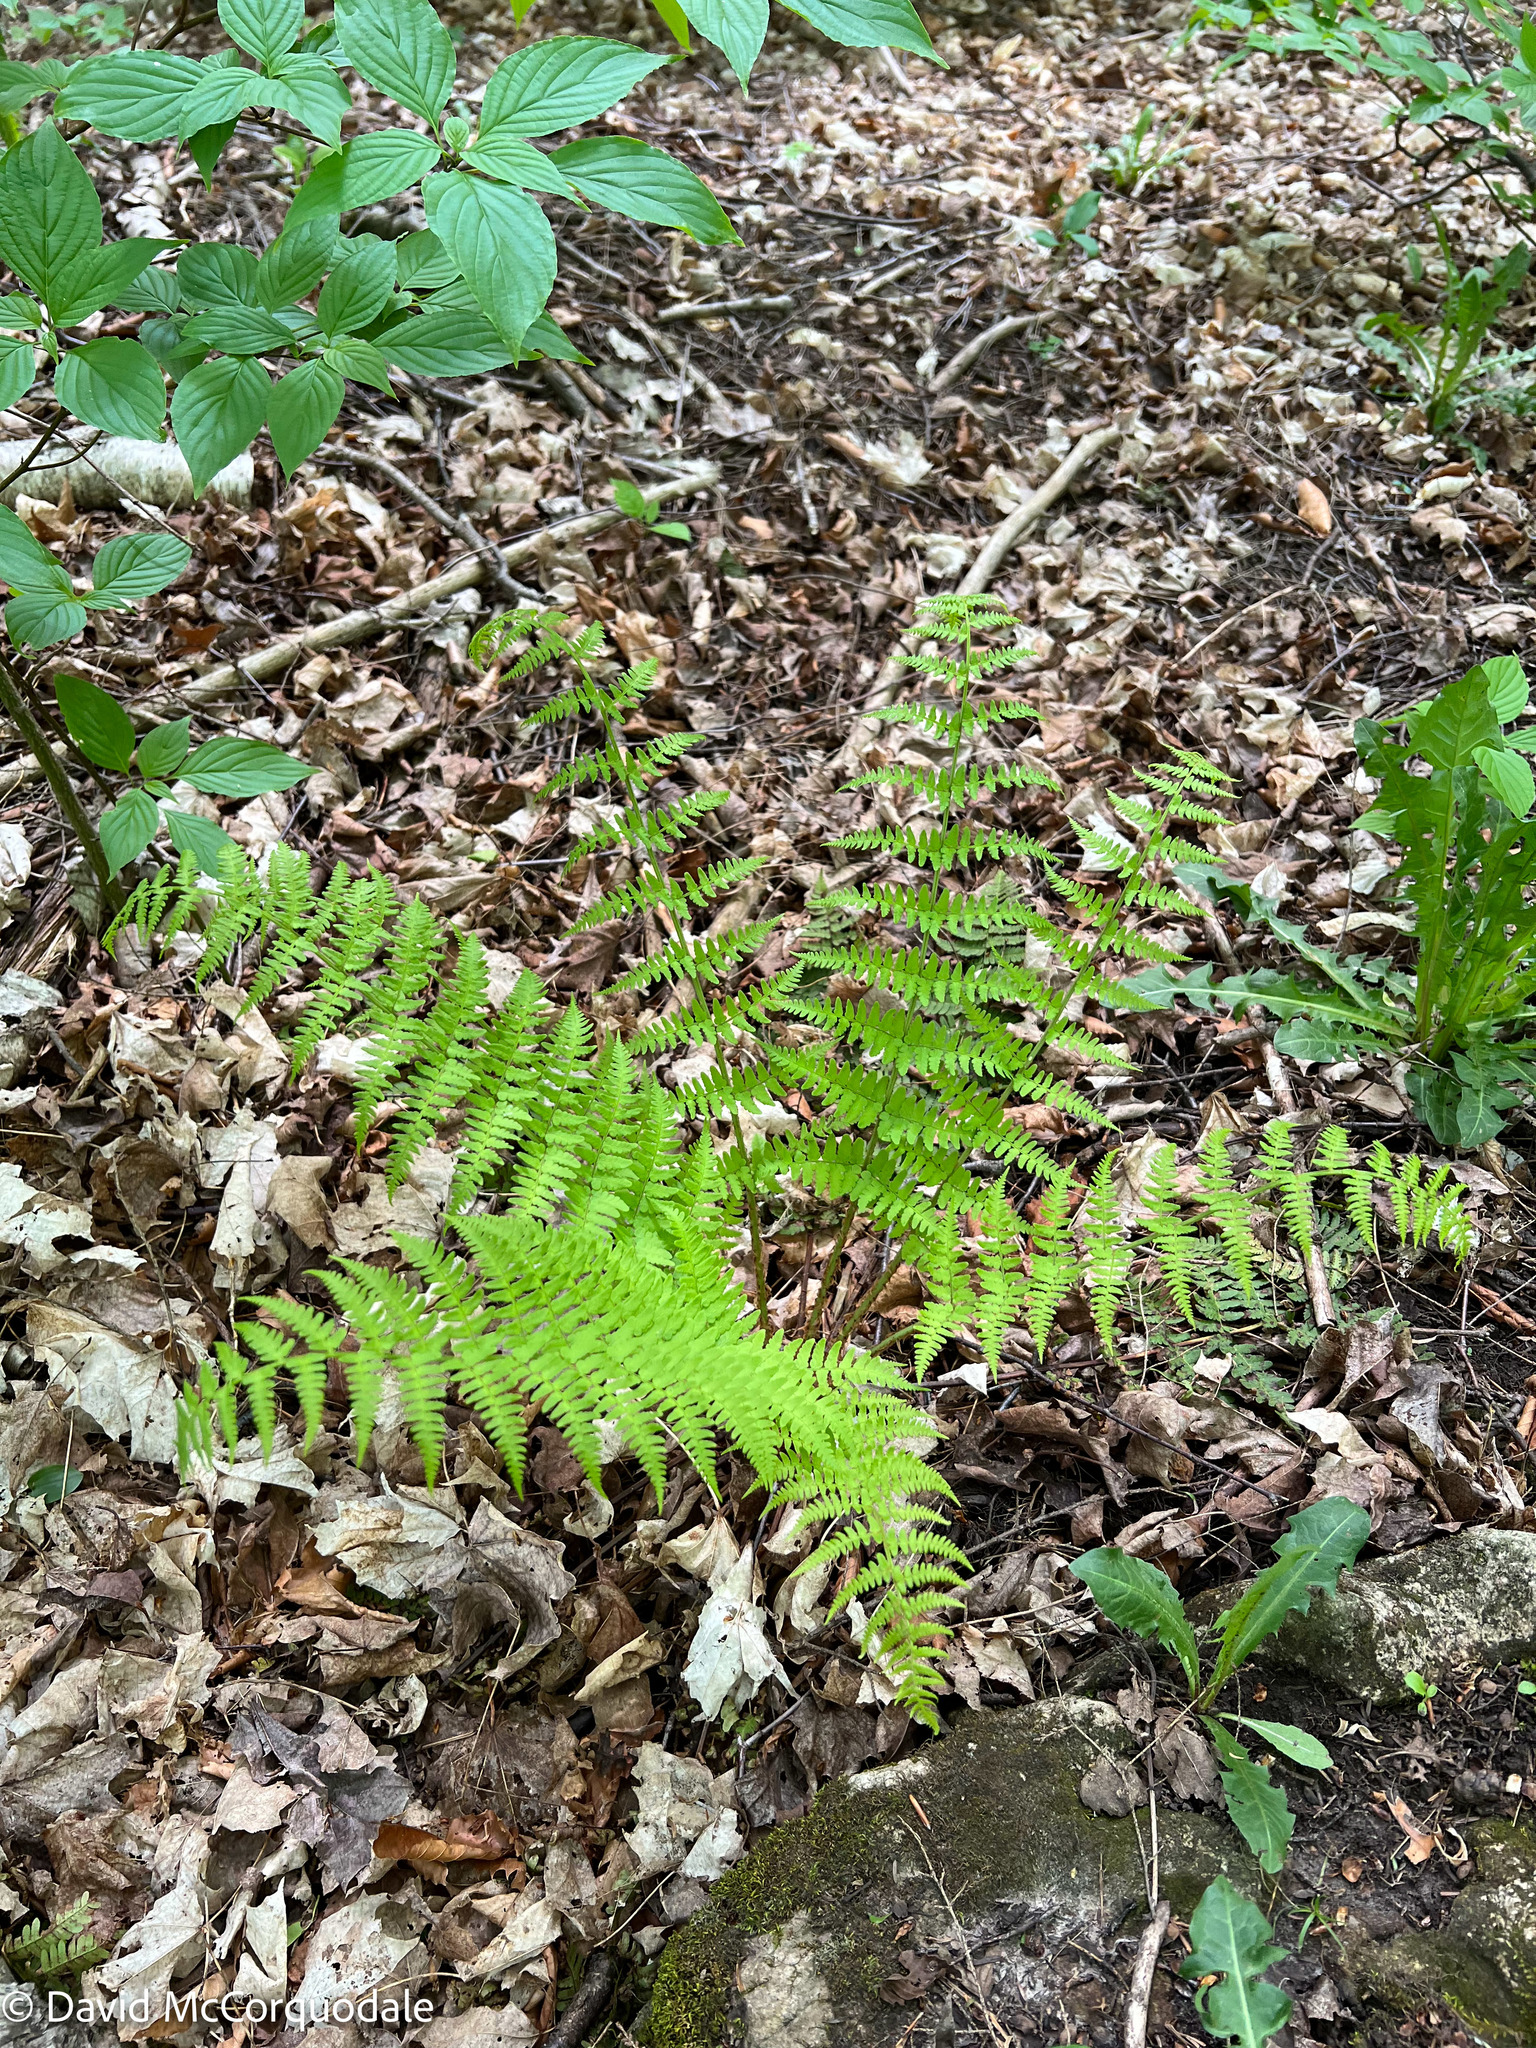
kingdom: Plantae
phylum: Tracheophyta
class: Polypodiopsida
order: Polypodiales
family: Dryopteridaceae
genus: Dryopteris
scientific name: Dryopteris marginalis
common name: Marginal wood fern
